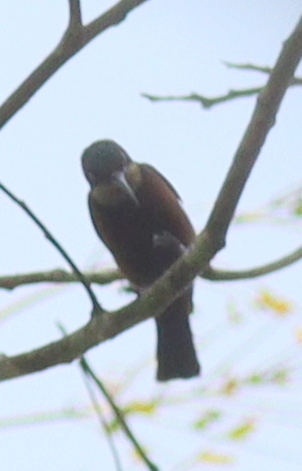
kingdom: Animalia
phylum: Chordata
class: Aves
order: Passeriformes
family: Nectariniidae
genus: Chalcomitra
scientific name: Chalcomitra adelberti
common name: Buff-throated sunbird
